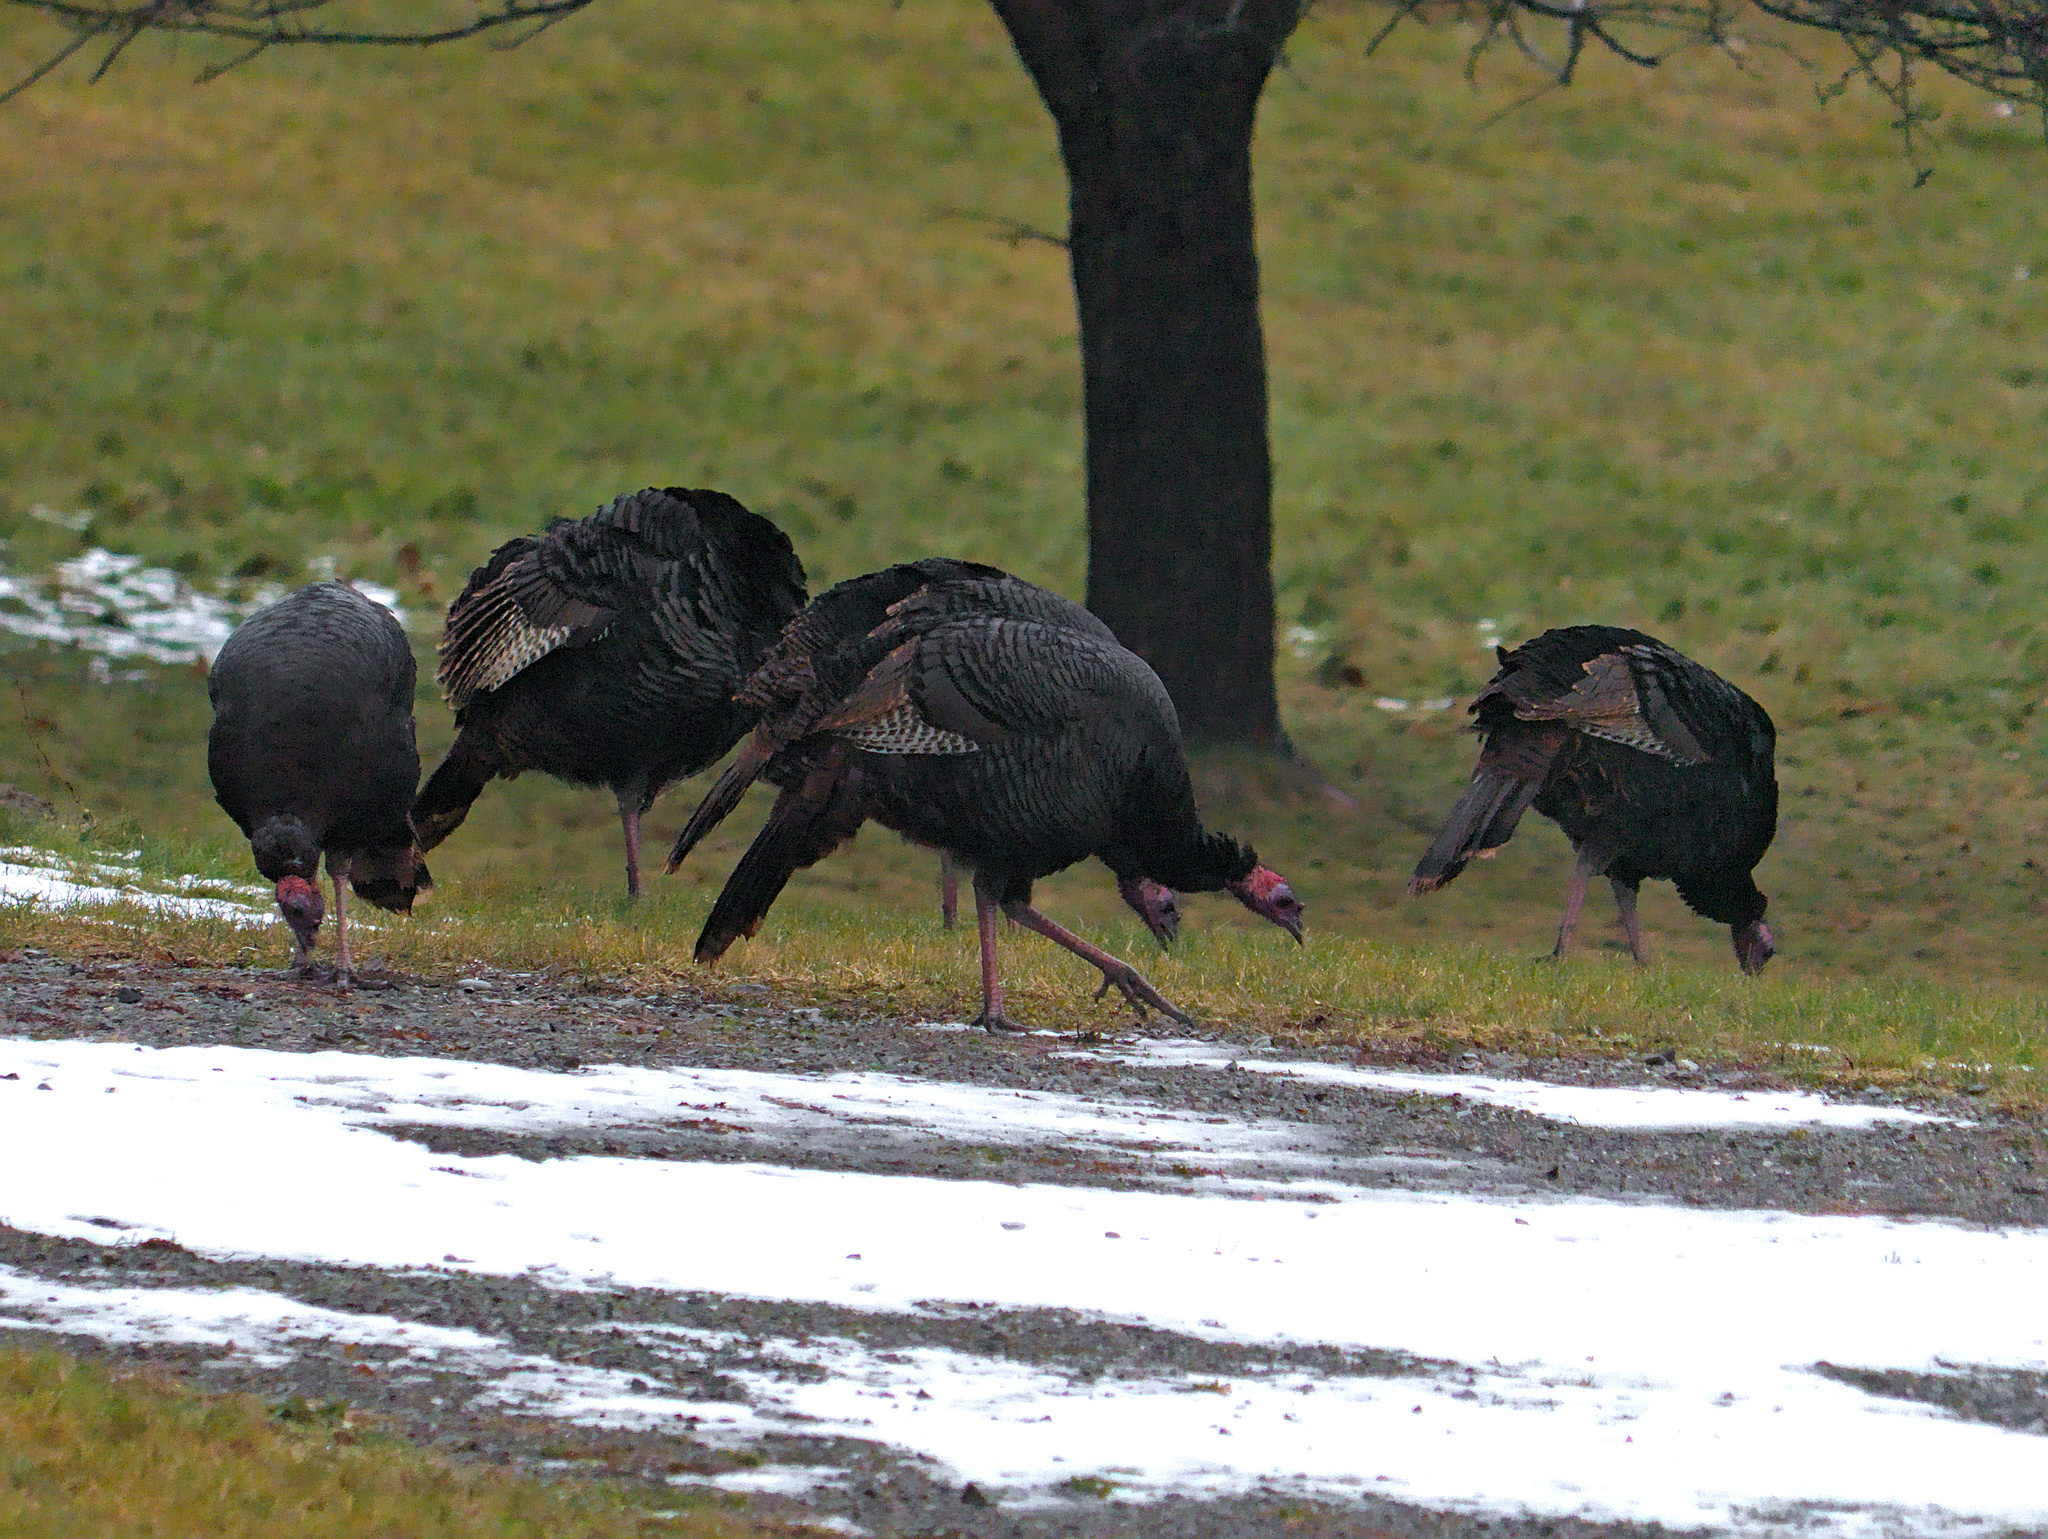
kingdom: Animalia
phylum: Chordata
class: Aves
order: Galliformes
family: Phasianidae
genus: Meleagris
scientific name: Meleagris gallopavo
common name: Wild turkey
